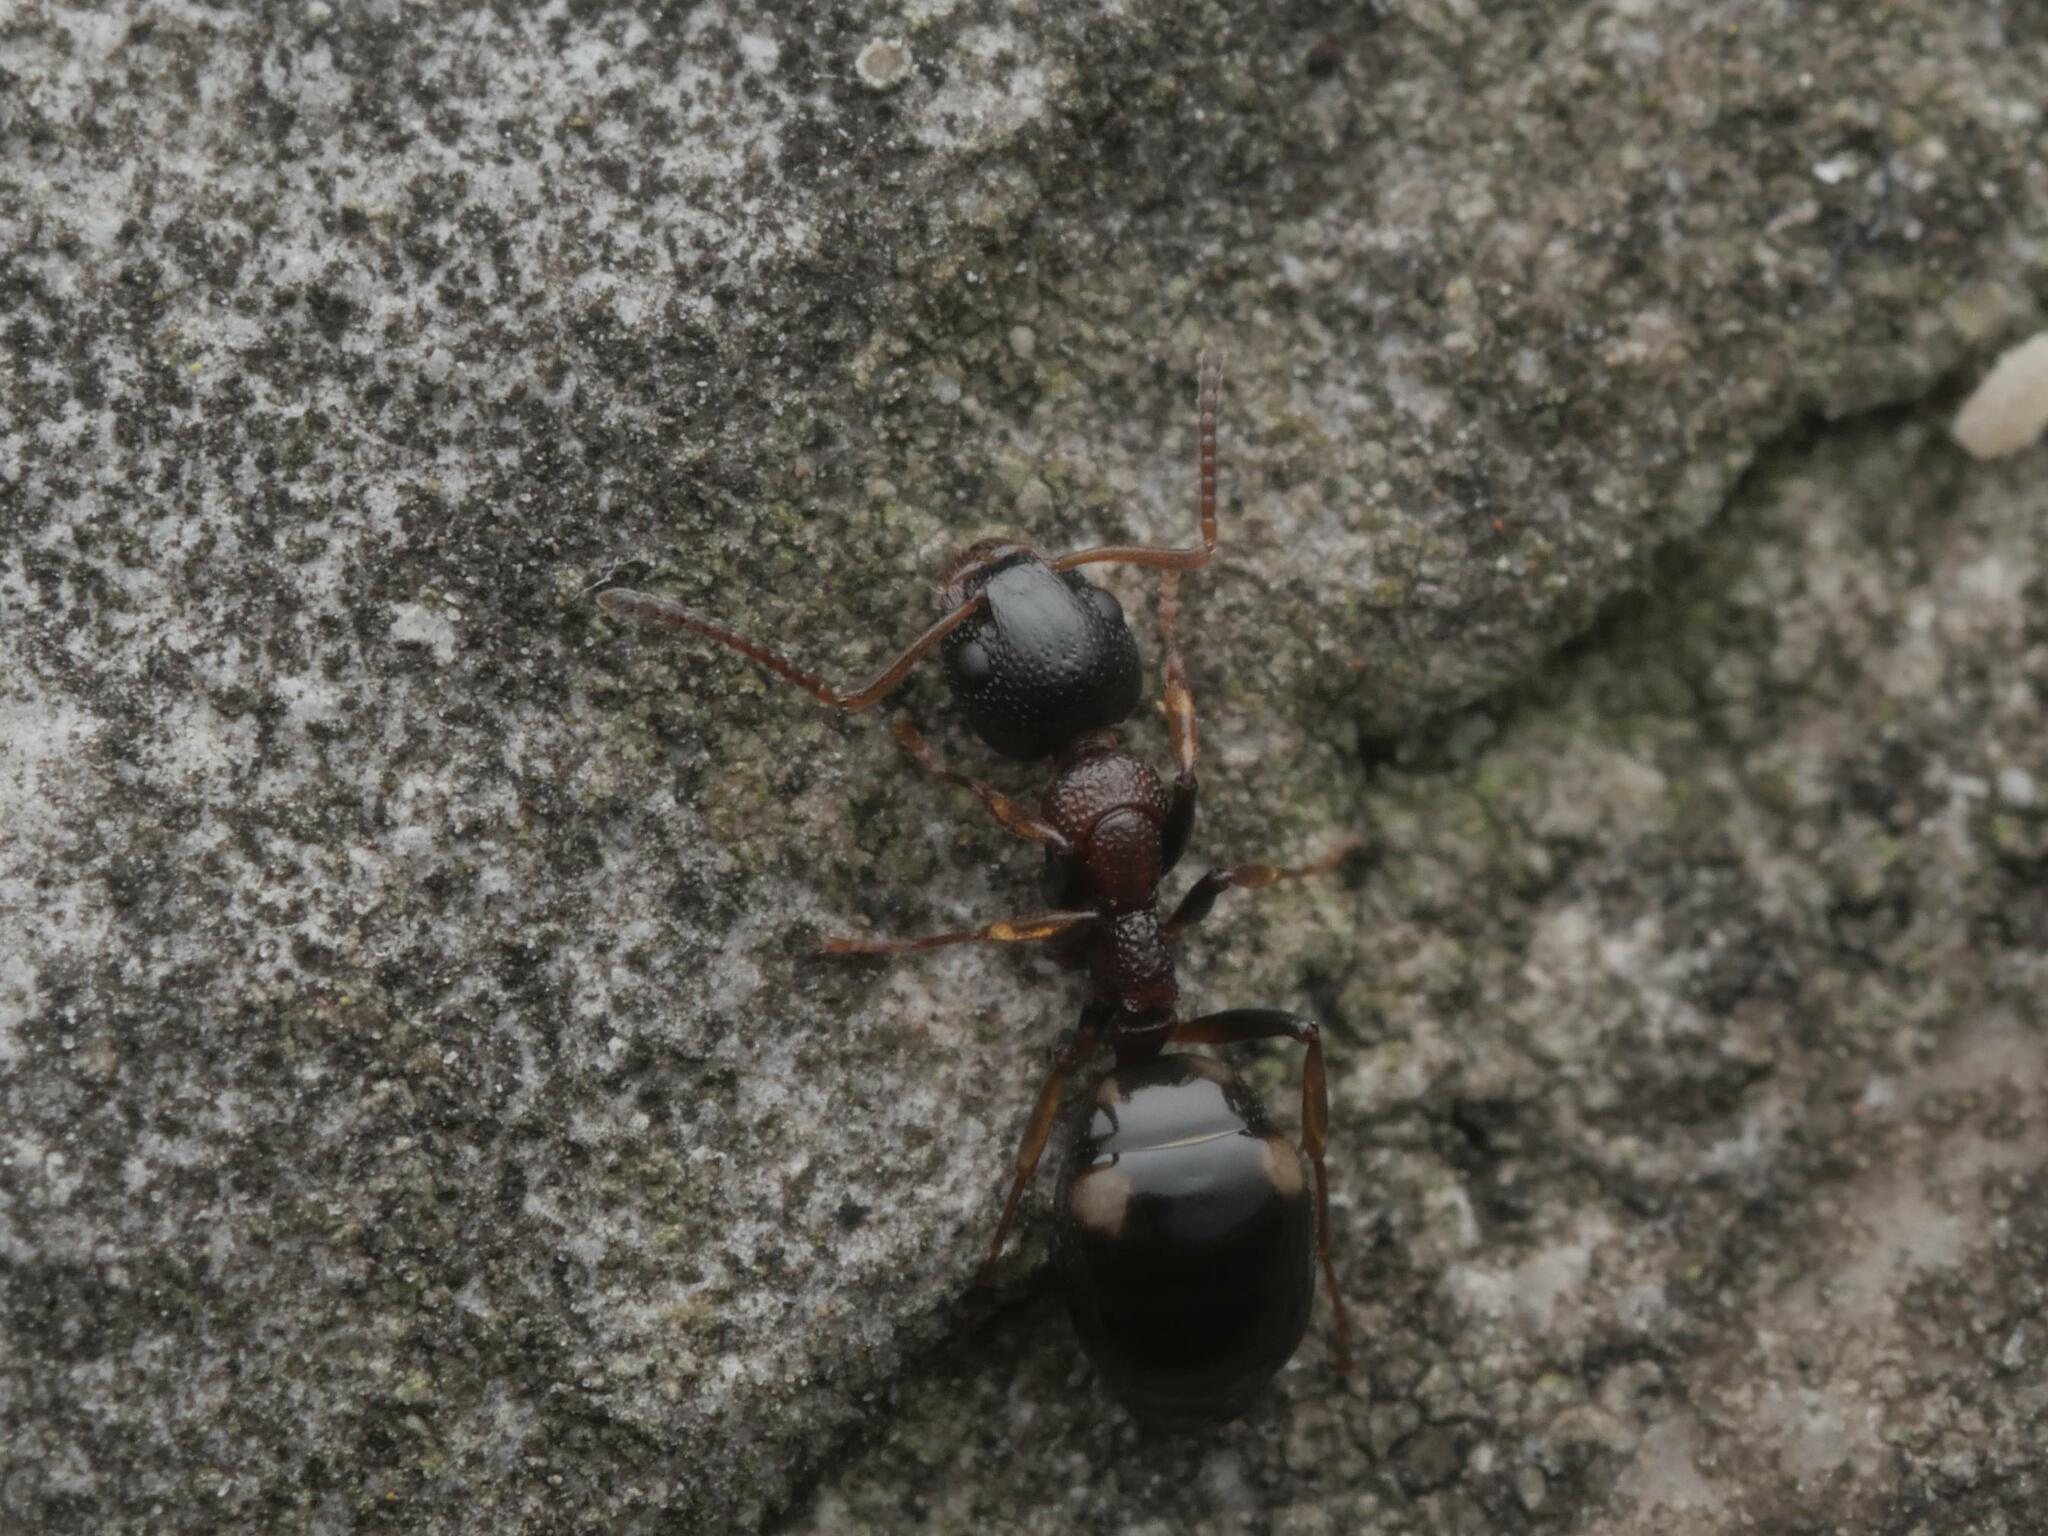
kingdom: Animalia
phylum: Arthropoda
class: Insecta
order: Hymenoptera
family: Formicidae
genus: Dolichoderus
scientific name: Dolichoderus quadripunctatus
